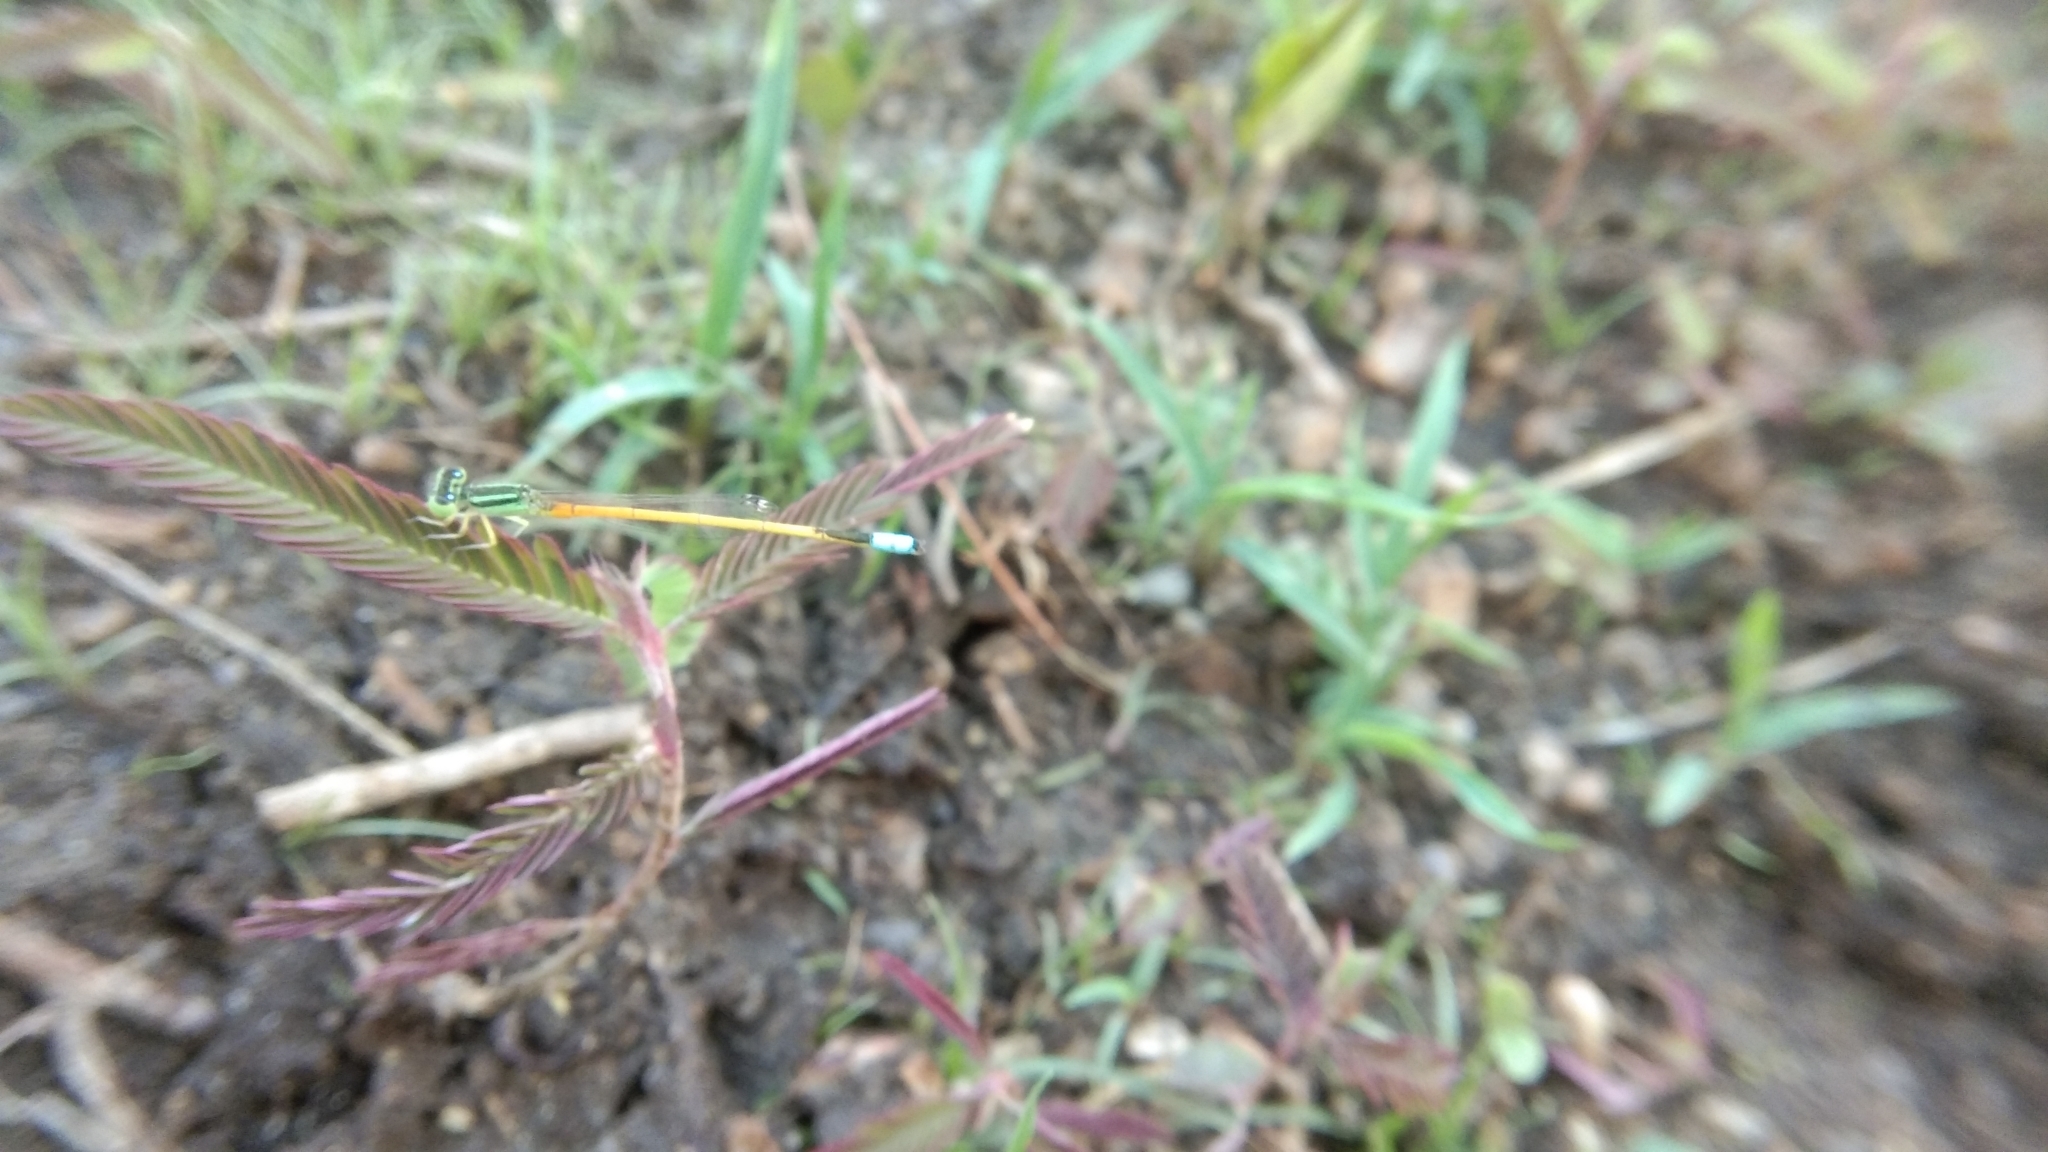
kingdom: Animalia
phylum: Arthropoda
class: Insecta
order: Odonata
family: Coenagrionidae
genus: Ischnura
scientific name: Ischnura rubilio
